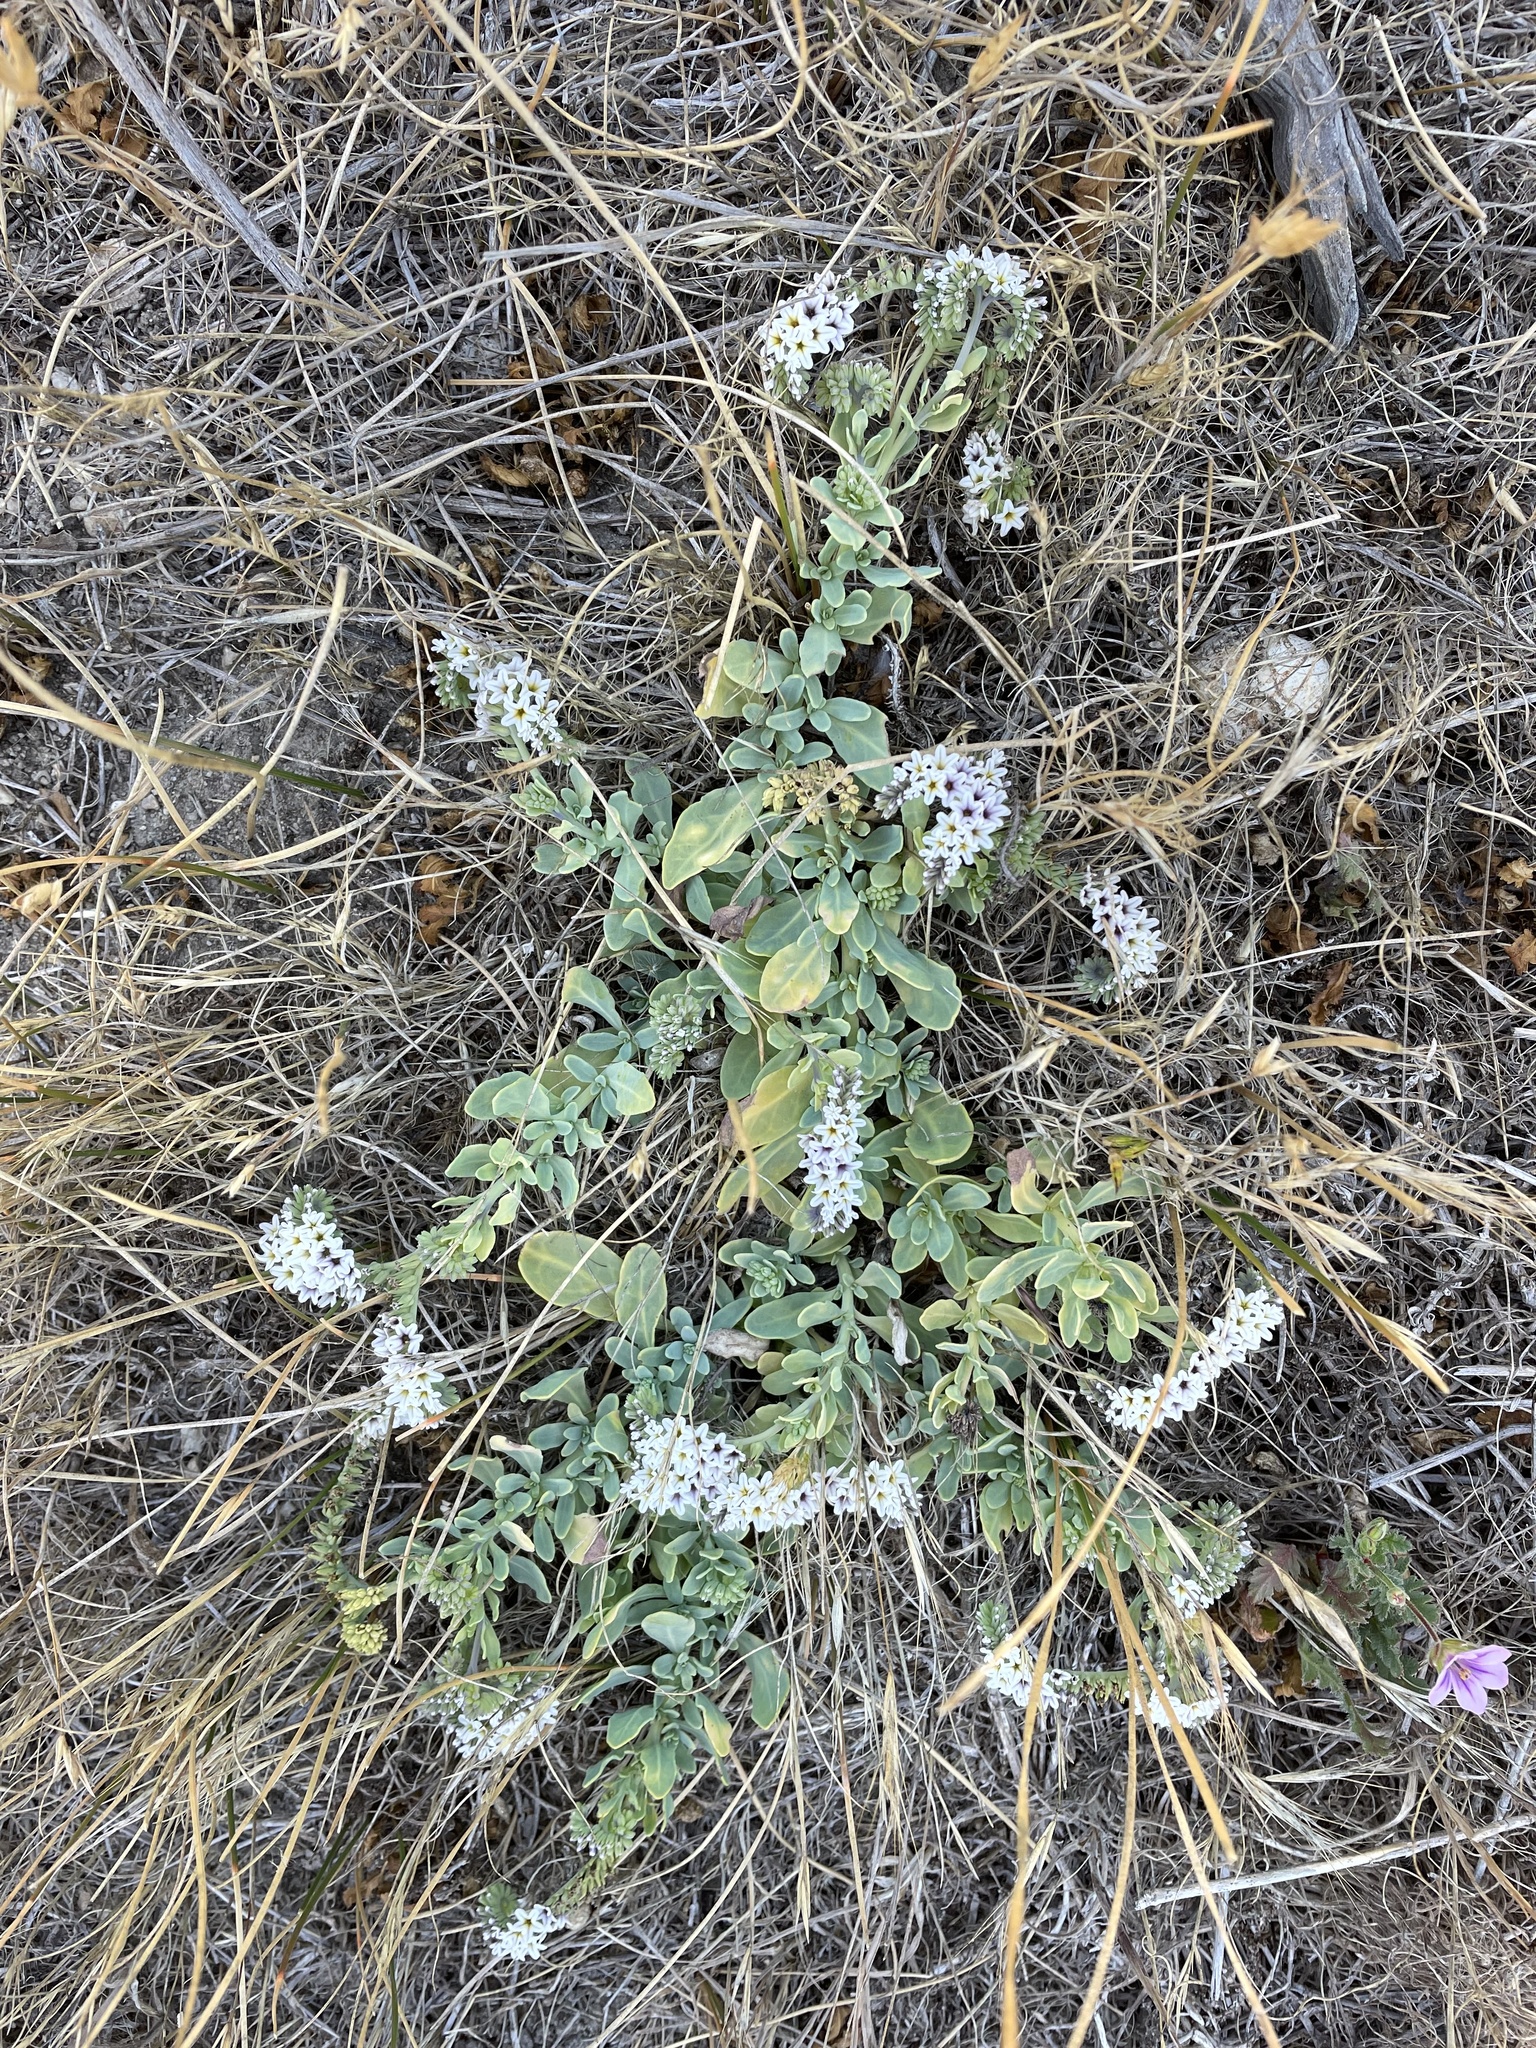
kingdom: Plantae
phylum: Tracheophyta
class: Magnoliopsida
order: Boraginales
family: Heliotropiaceae
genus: Heliotropium
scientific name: Heliotropium curassavicum
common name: Seaside heliotrope
